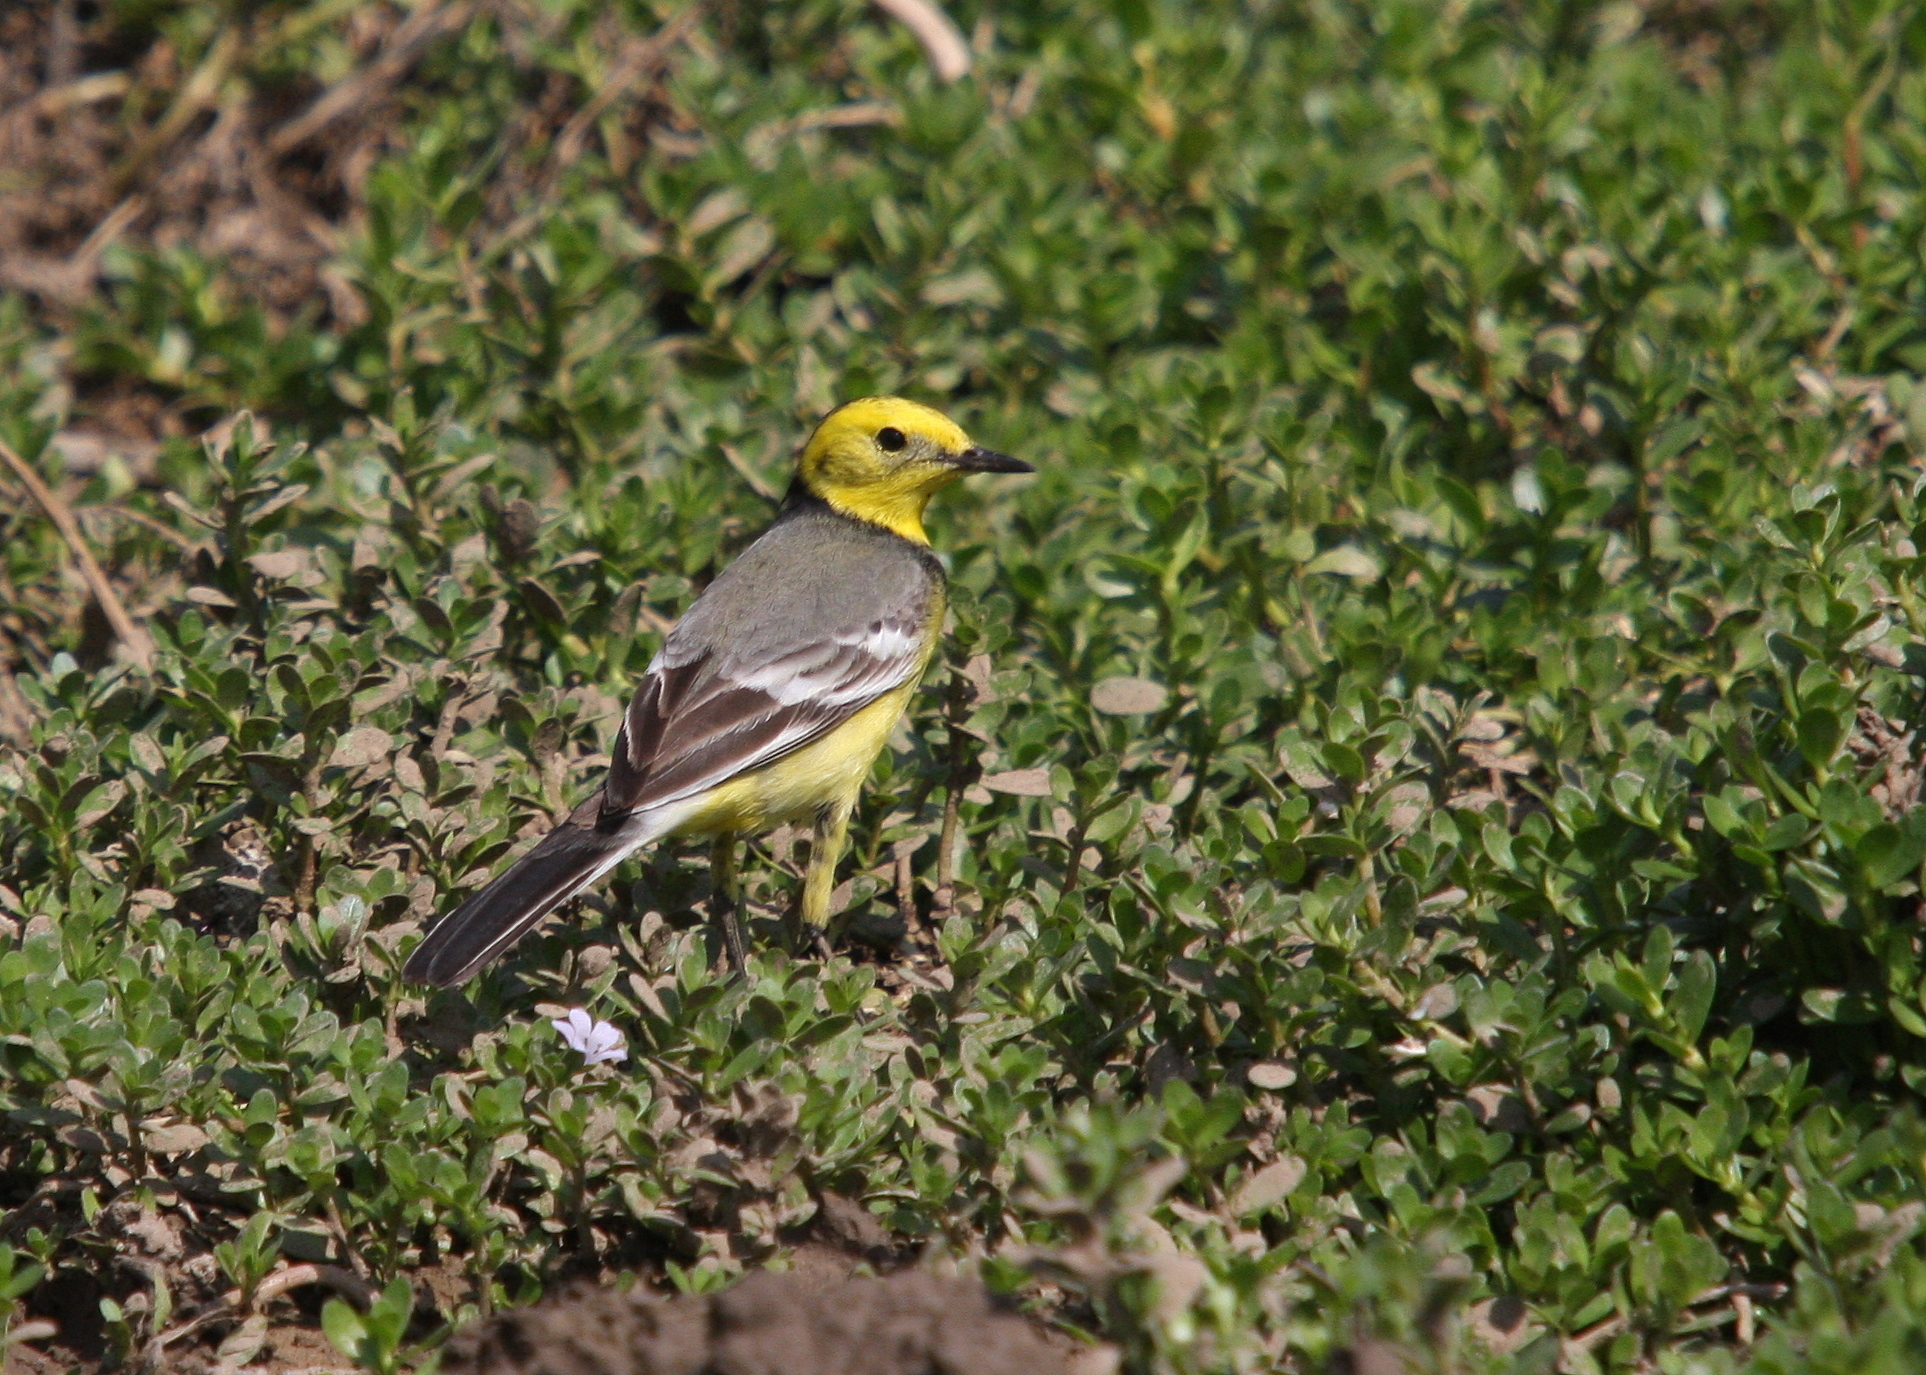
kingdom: Animalia
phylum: Chordata
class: Aves
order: Passeriformes
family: Motacillidae
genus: Motacilla
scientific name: Motacilla citreola
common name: Citrine wagtail
